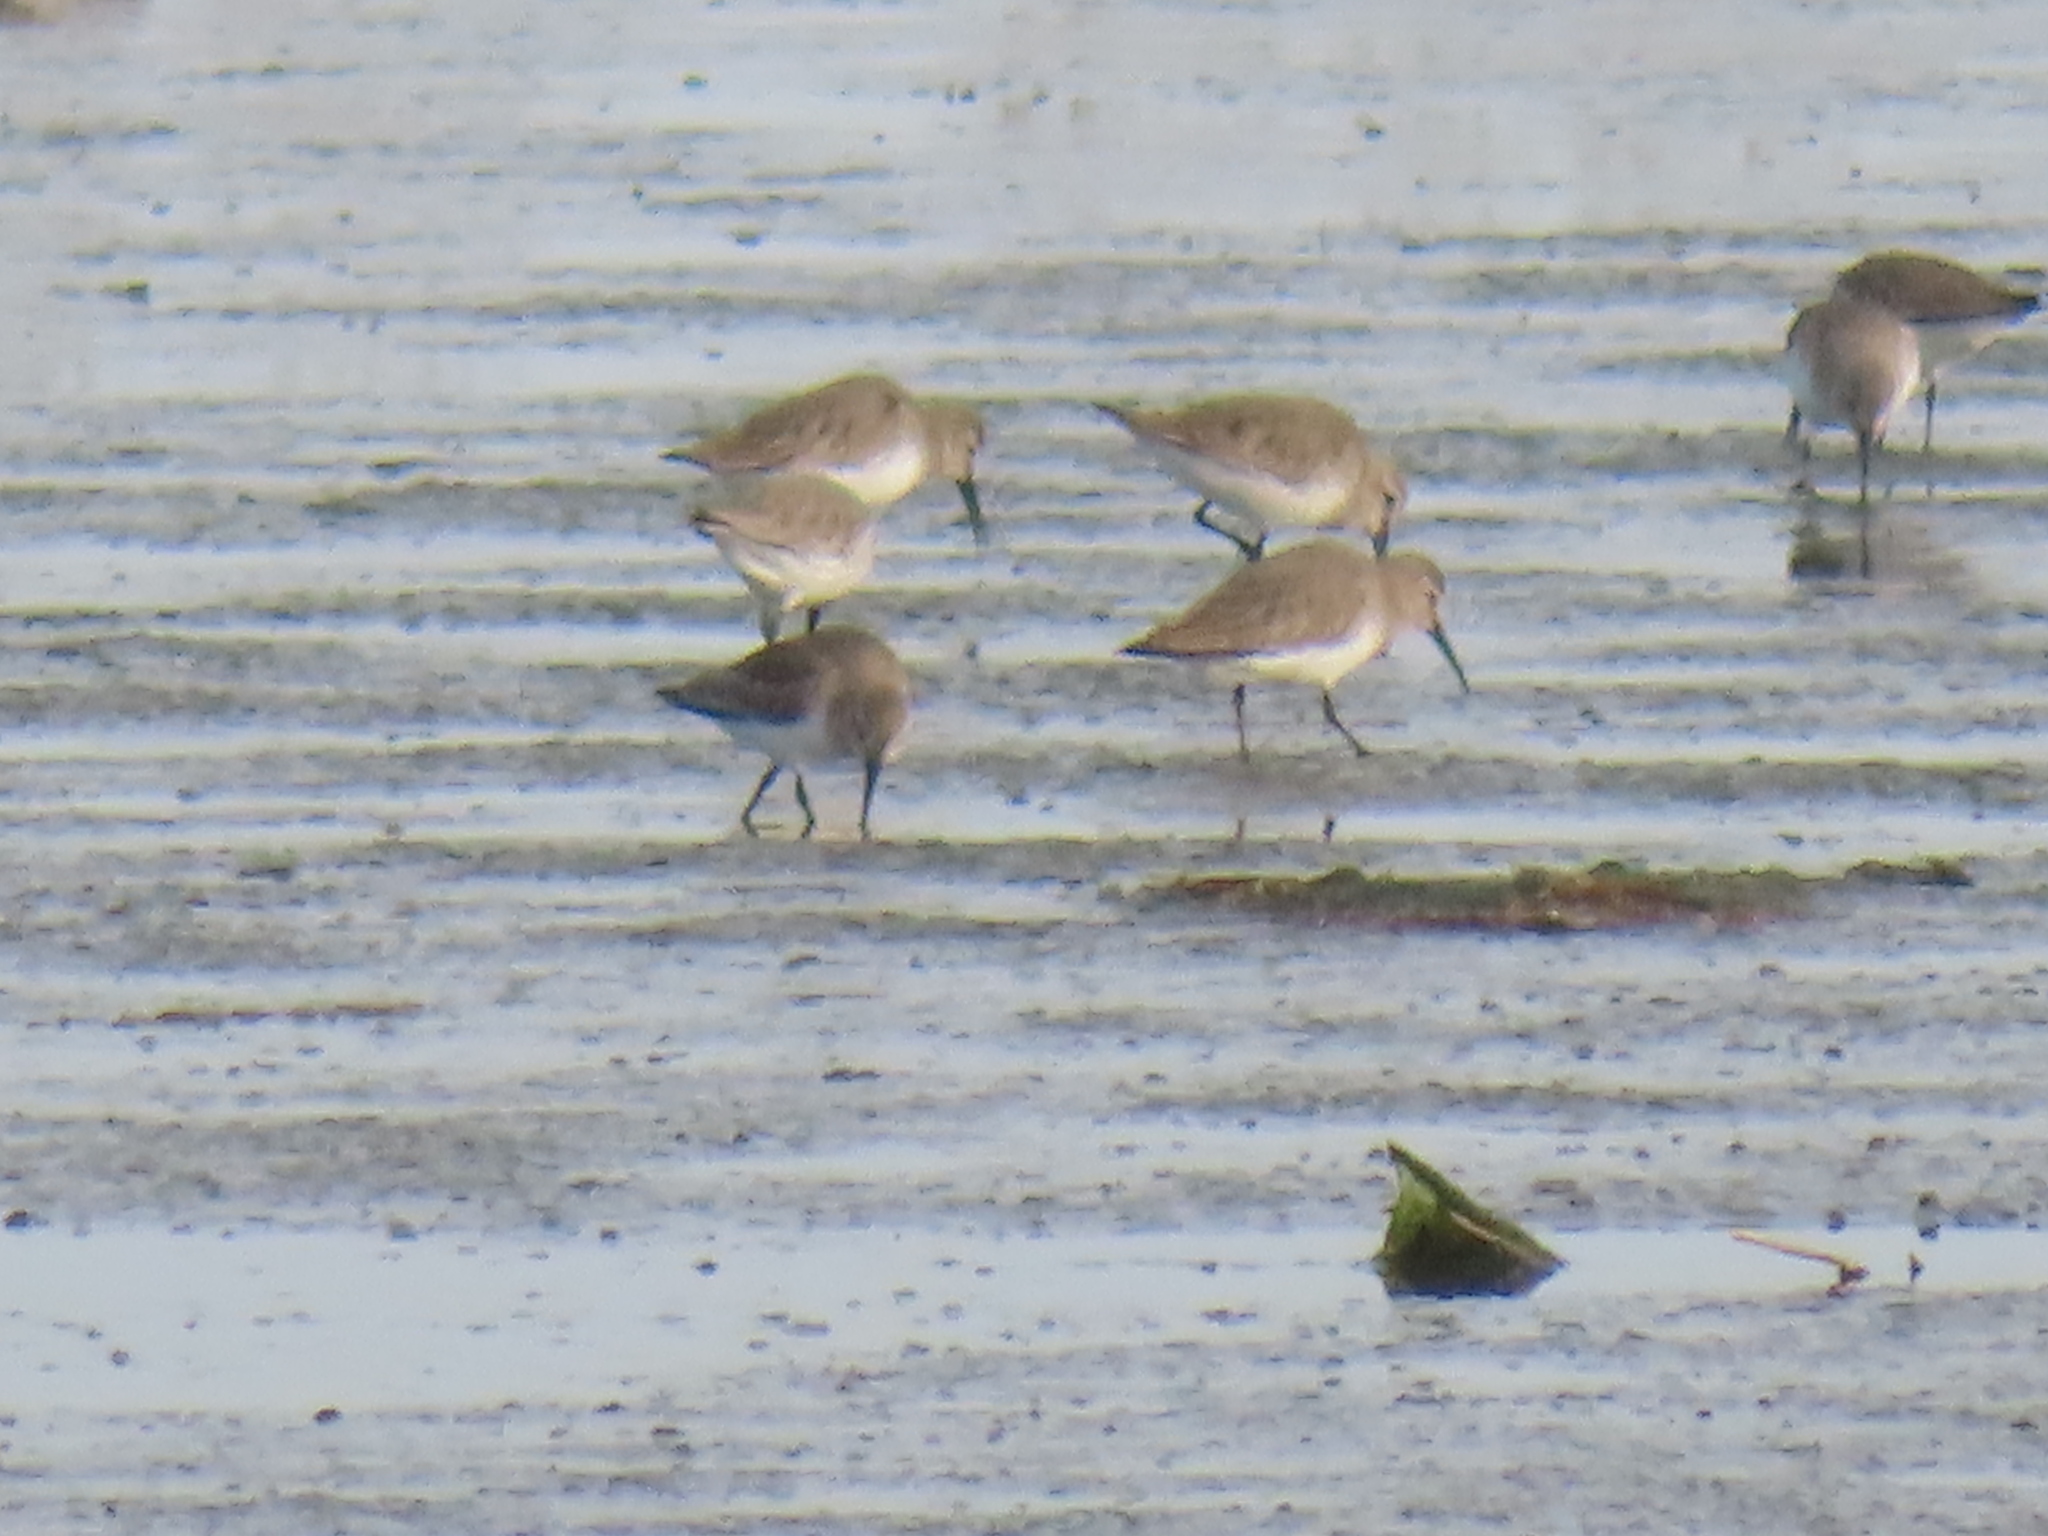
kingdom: Animalia
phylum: Chordata
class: Aves
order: Charadriiformes
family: Scolopacidae
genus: Calidris
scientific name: Calidris alpina
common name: Dunlin
